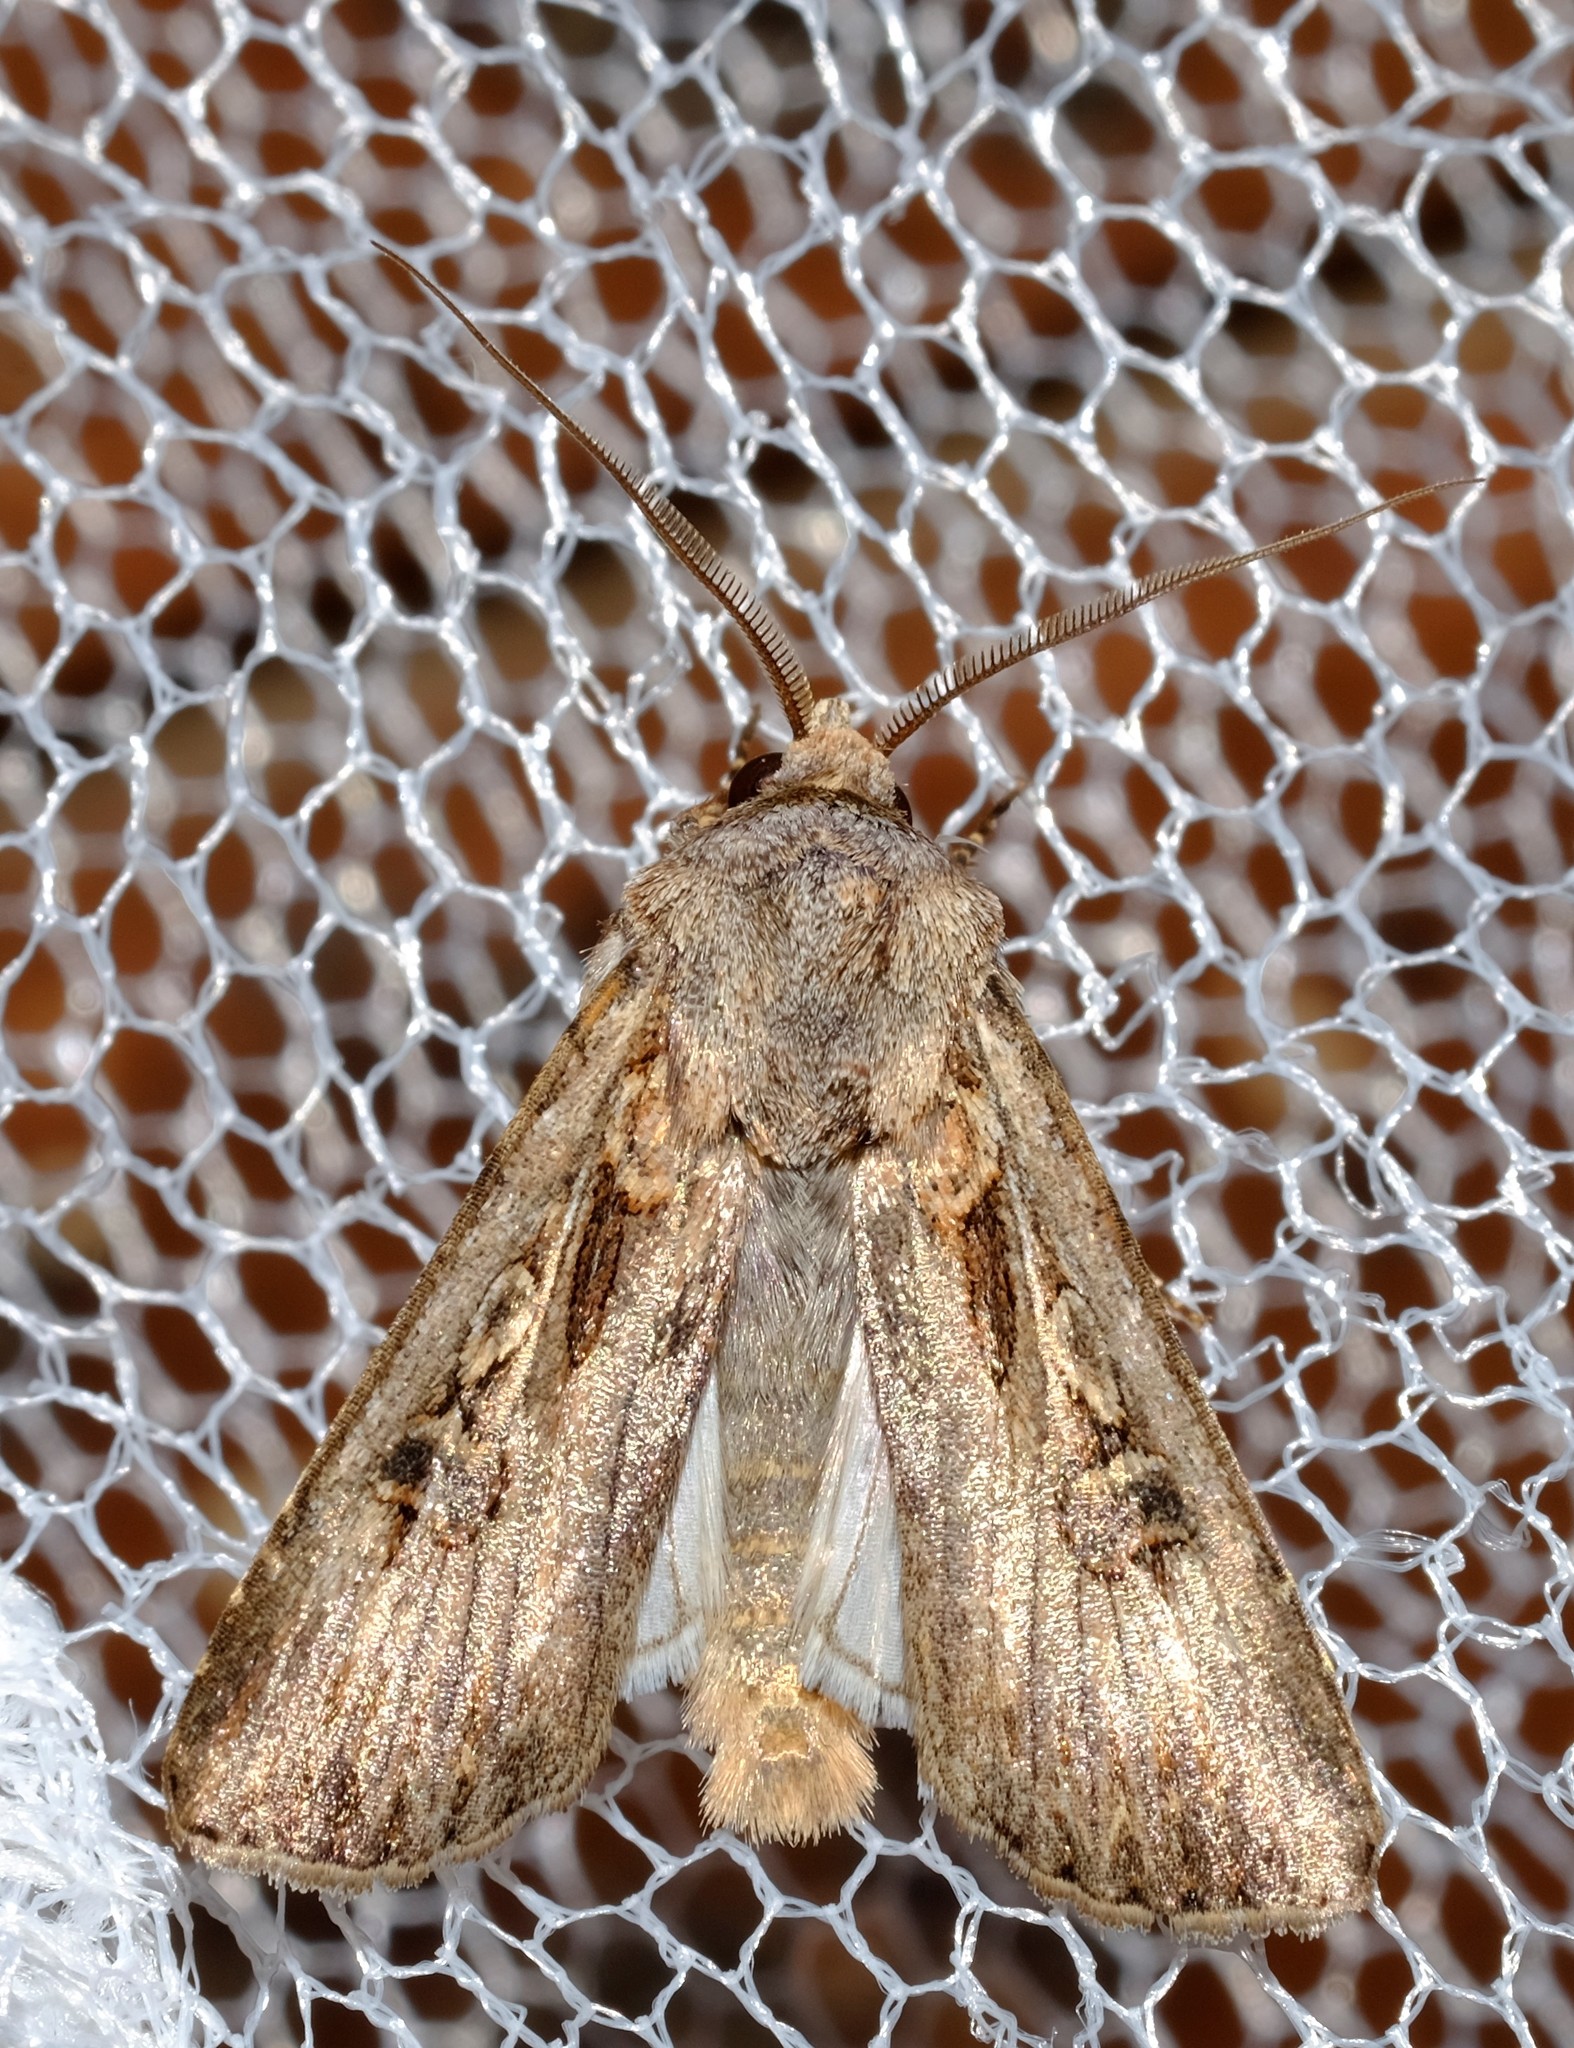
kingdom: Animalia
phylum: Arthropoda
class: Insecta
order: Lepidoptera
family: Noctuidae
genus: Agrotis
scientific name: Agrotis munda
